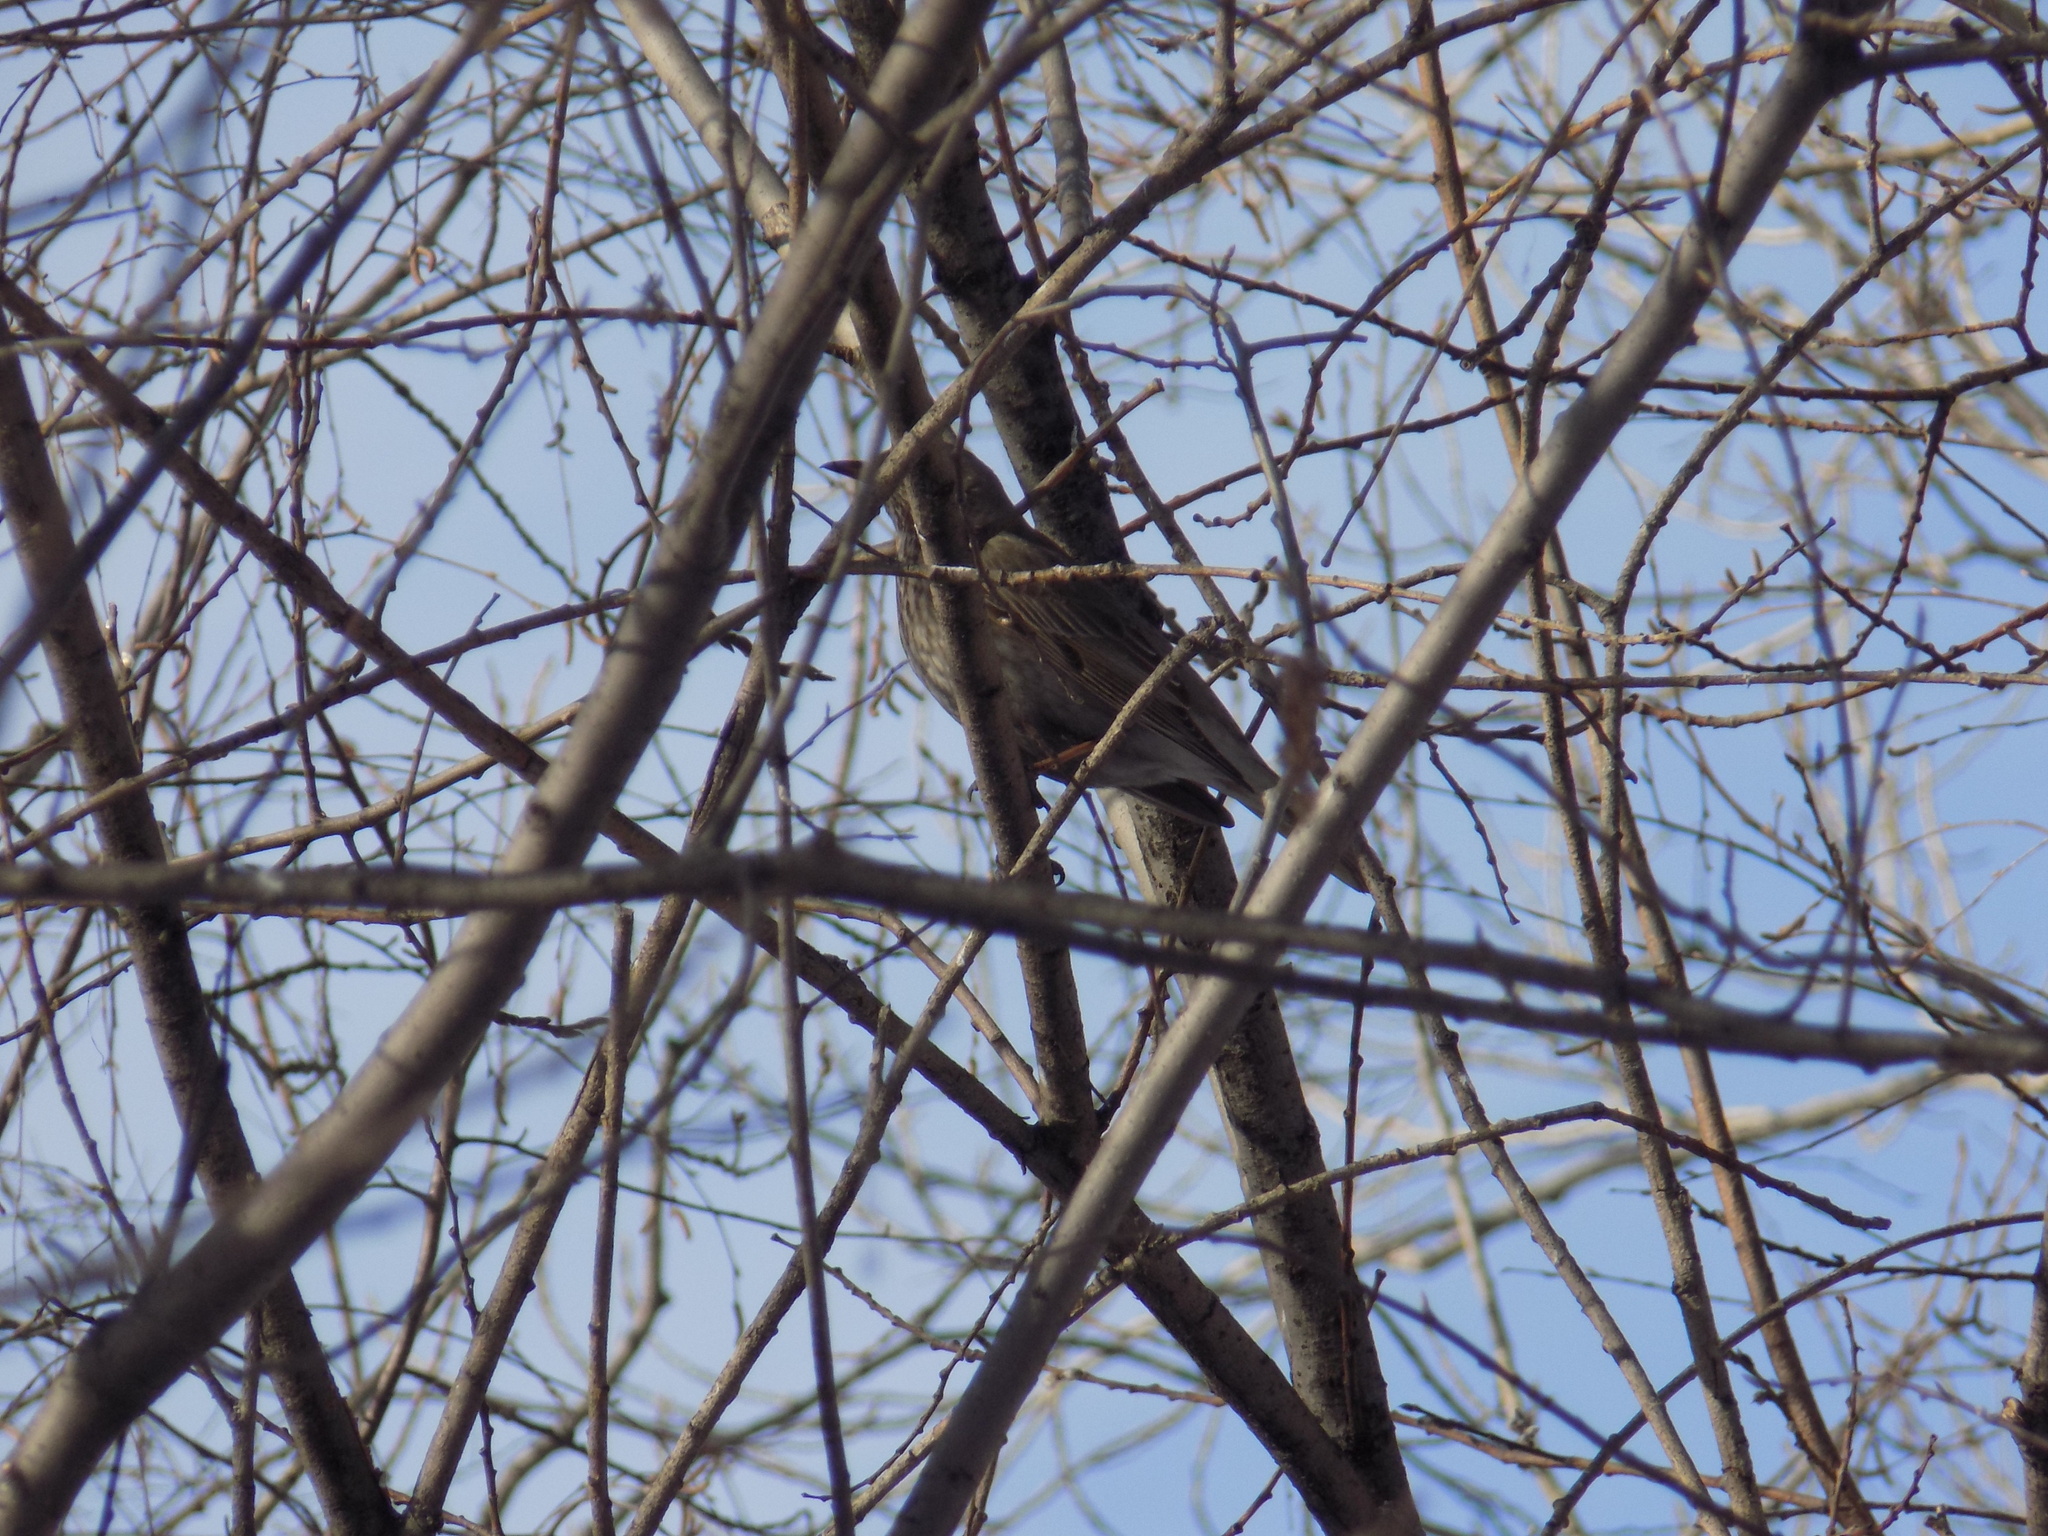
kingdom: Animalia
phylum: Chordata
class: Aves
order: Passeriformes
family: Turdidae
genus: Turdus
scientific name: Turdus atrogularis
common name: Black-throated thrush
